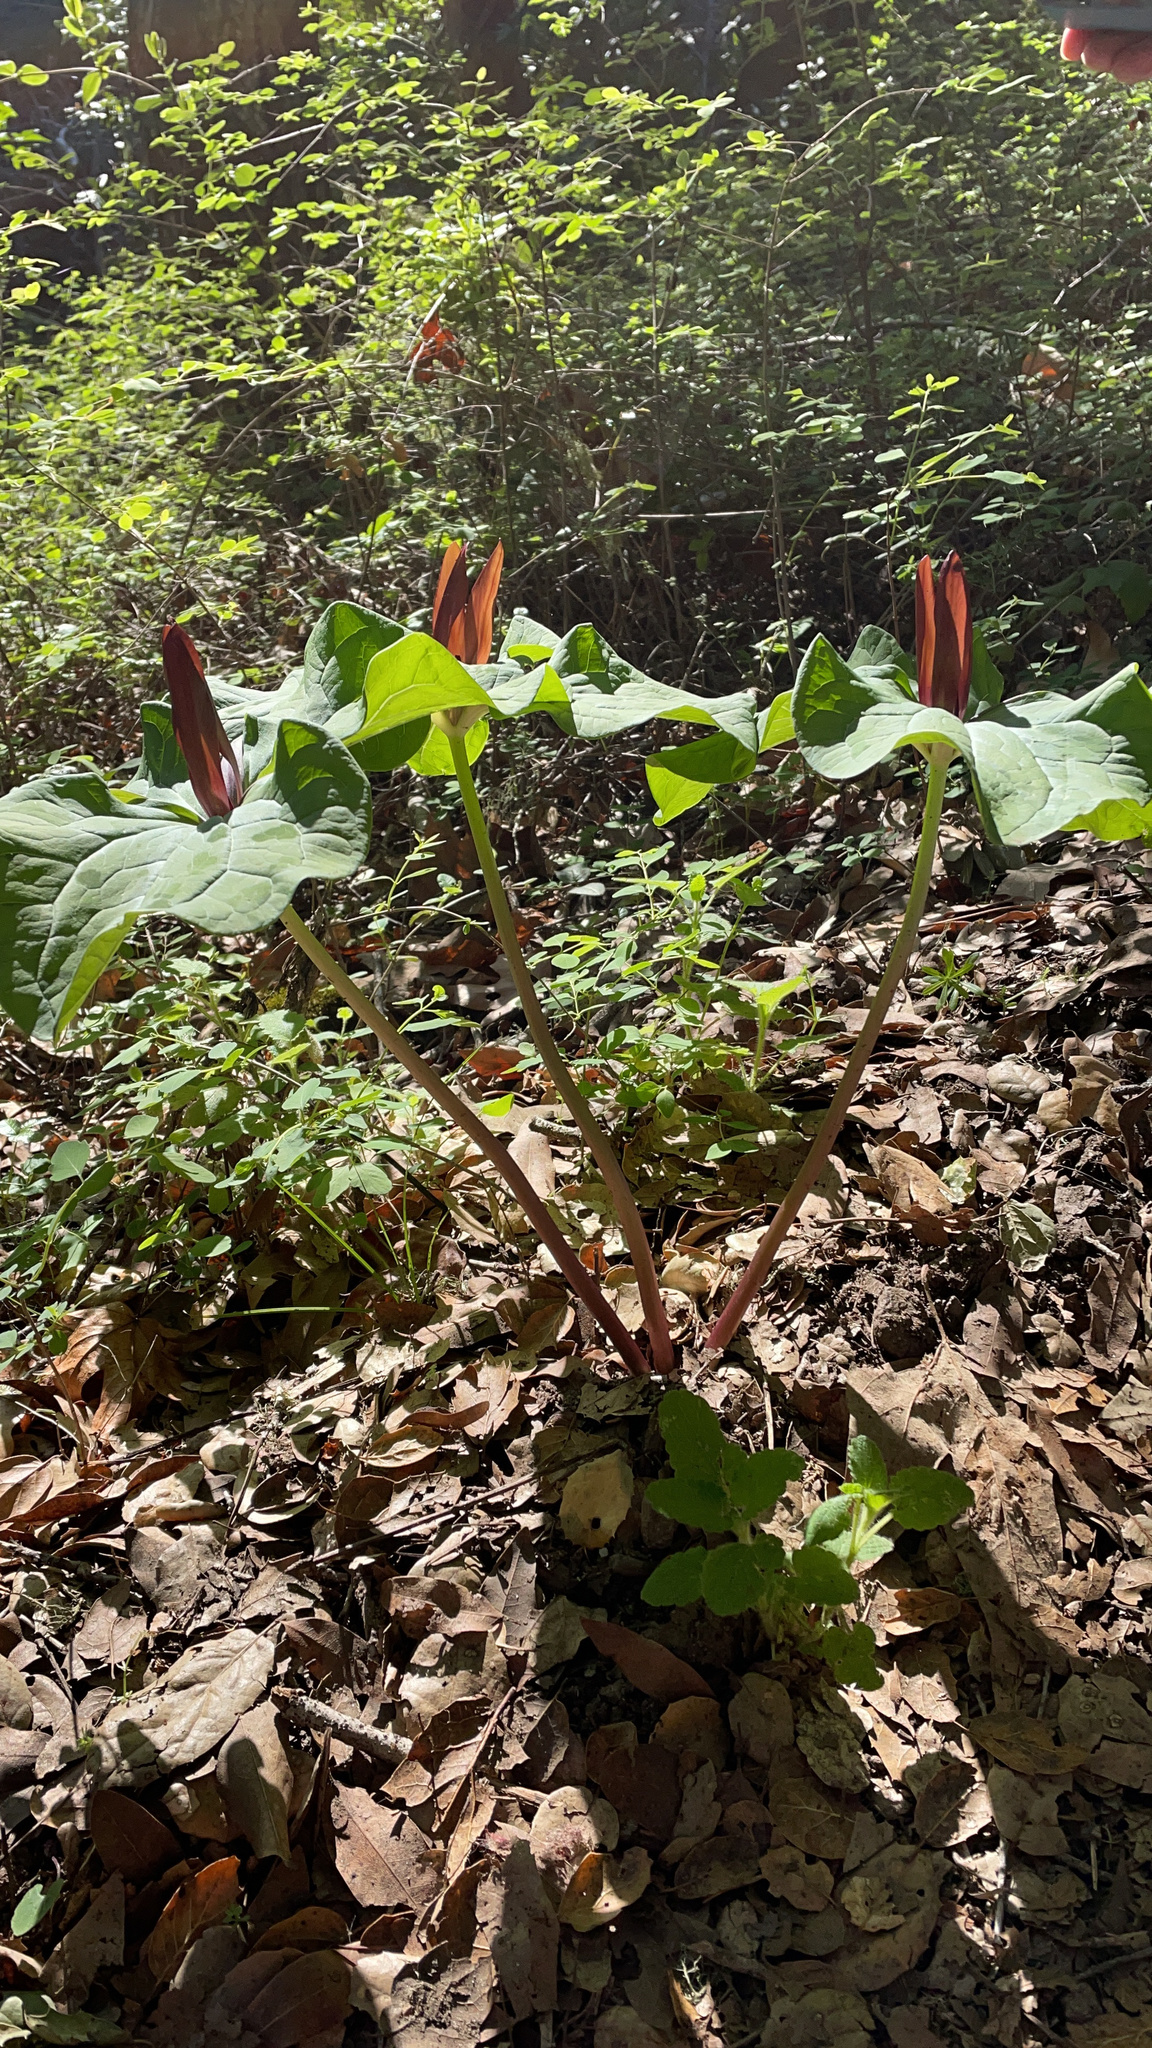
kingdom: Plantae
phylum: Tracheophyta
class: Liliopsida
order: Liliales
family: Melanthiaceae
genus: Trillium
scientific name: Trillium chloropetalum
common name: Giant trillium
